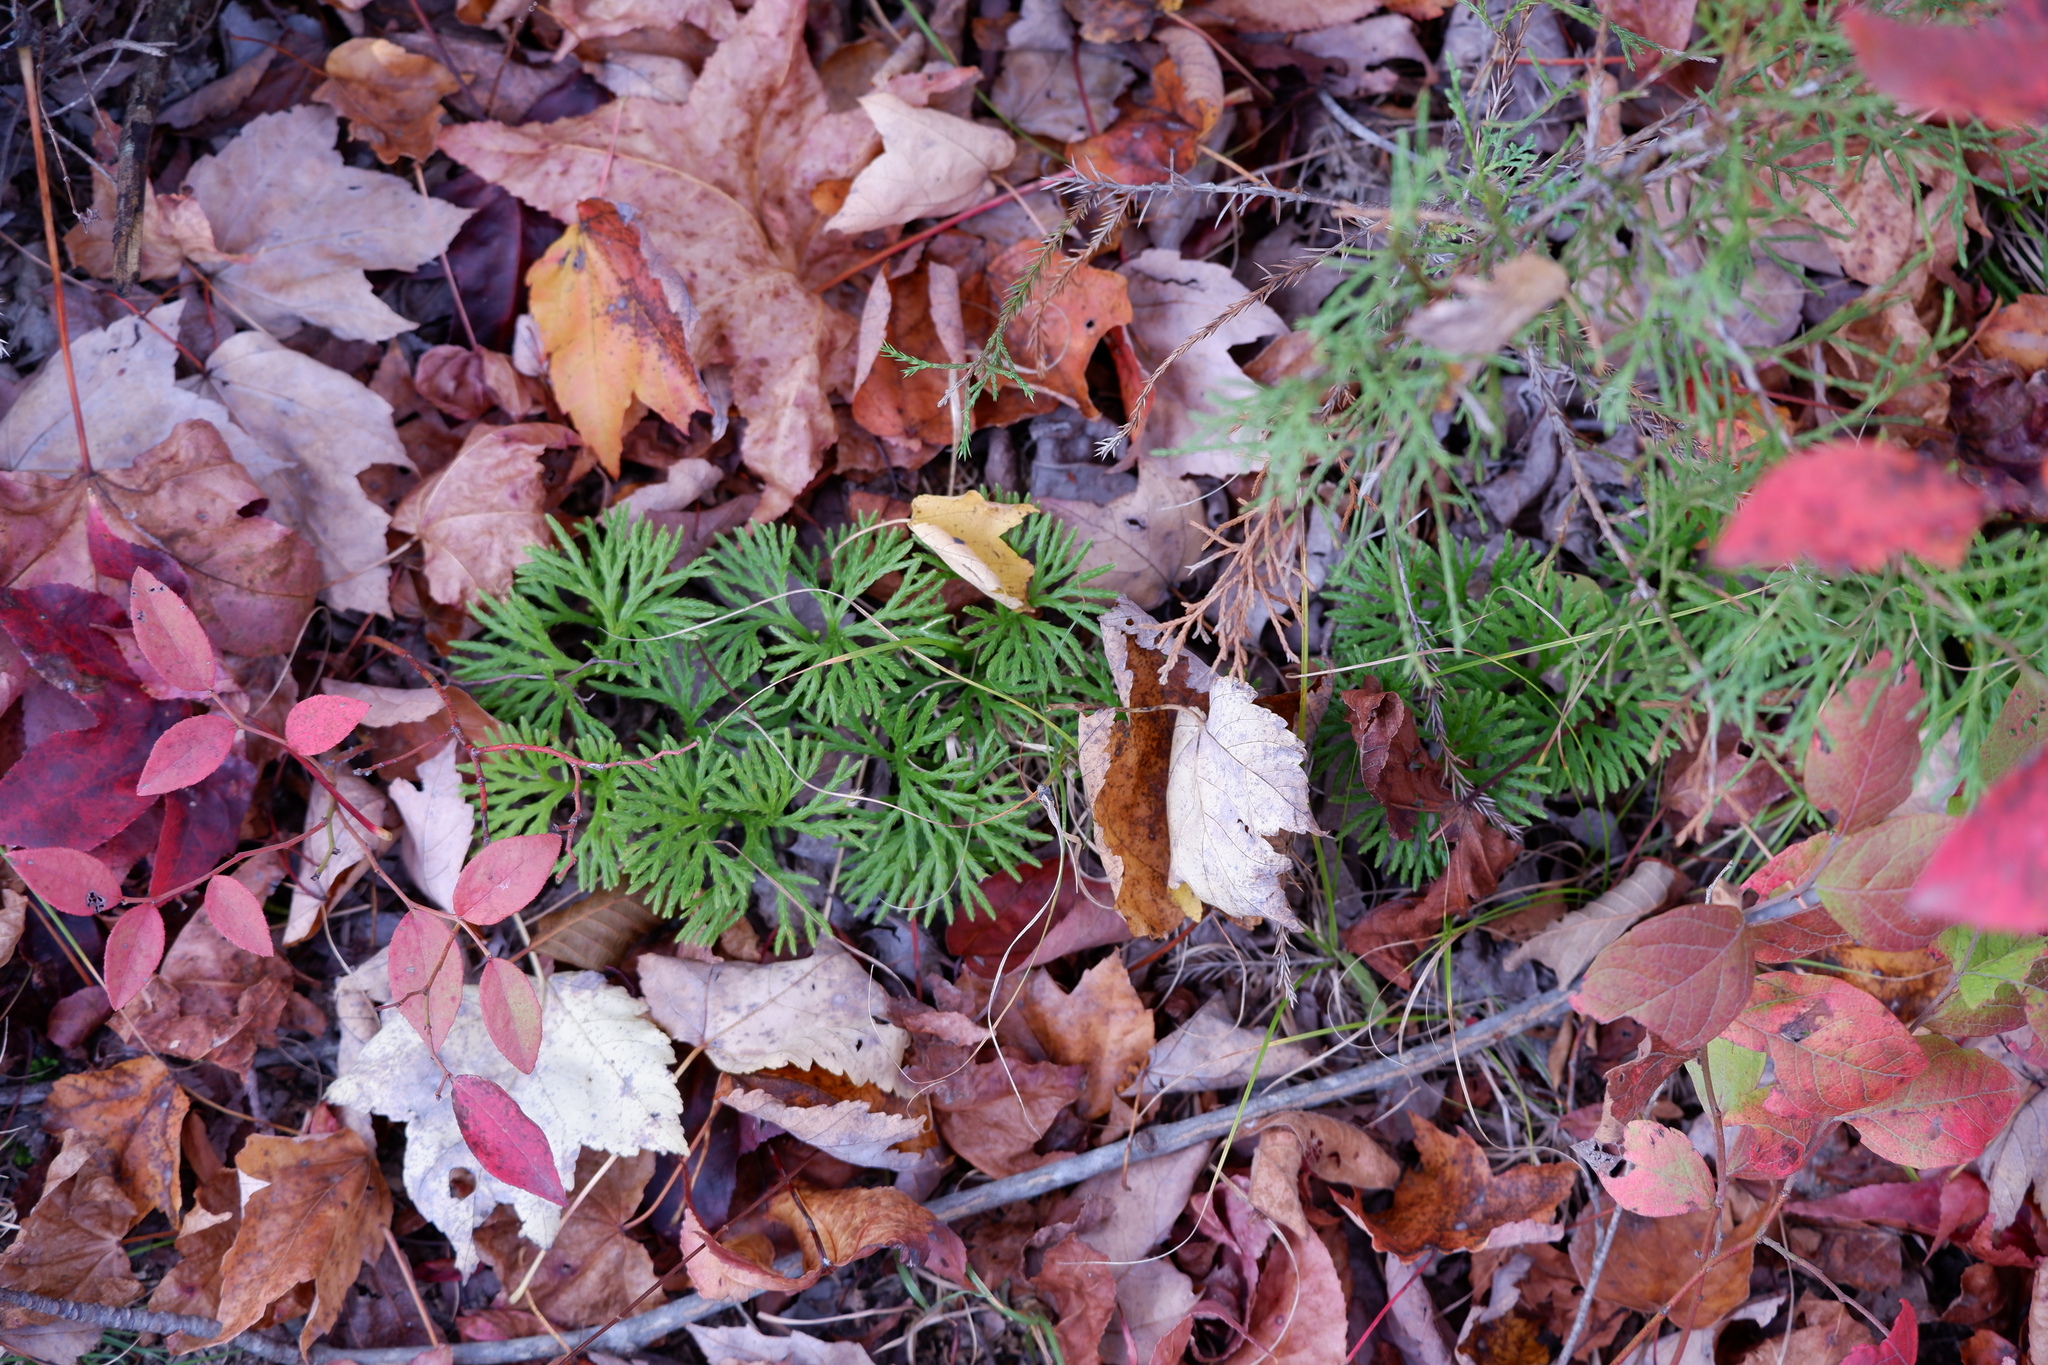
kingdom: Plantae
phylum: Tracheophyta
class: Lycopodiopsida
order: Lycopodiales
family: Lycopodiaceae
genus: Diphasiastrum
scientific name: Diphasiastrum digitatum
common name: Southern running-pine
